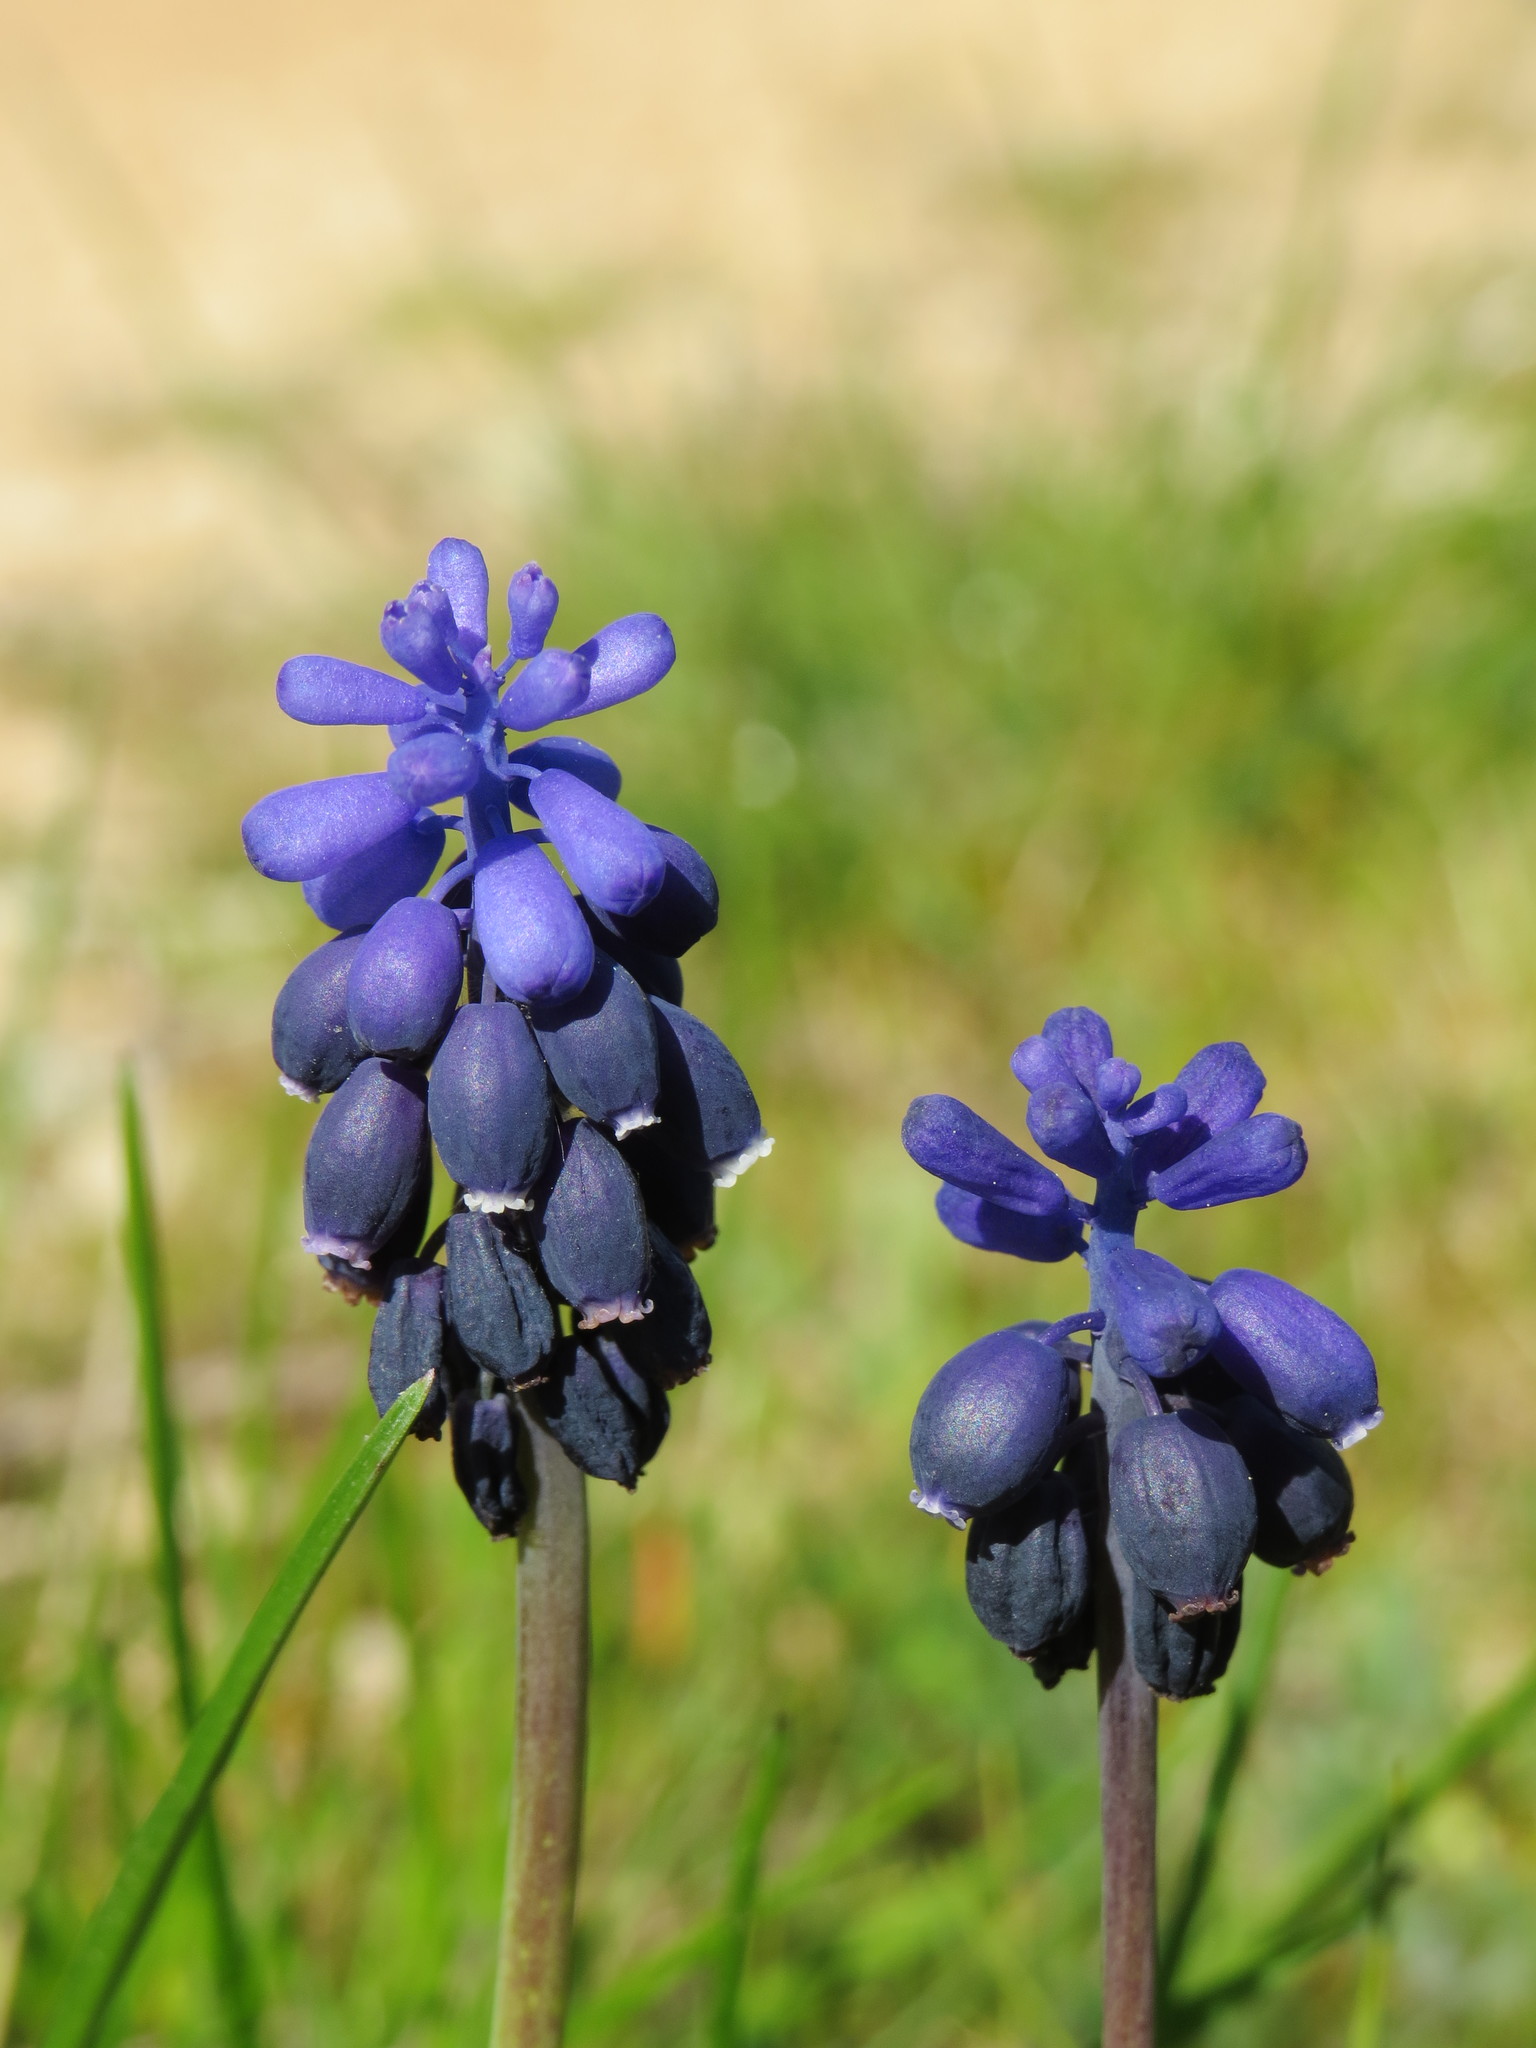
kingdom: Plantae
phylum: Tracheophyta
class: Liliopsida
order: Asparagales
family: Asparagaceae
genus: Muscari
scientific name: Muscari neglectum
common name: Grape-hyacinth
